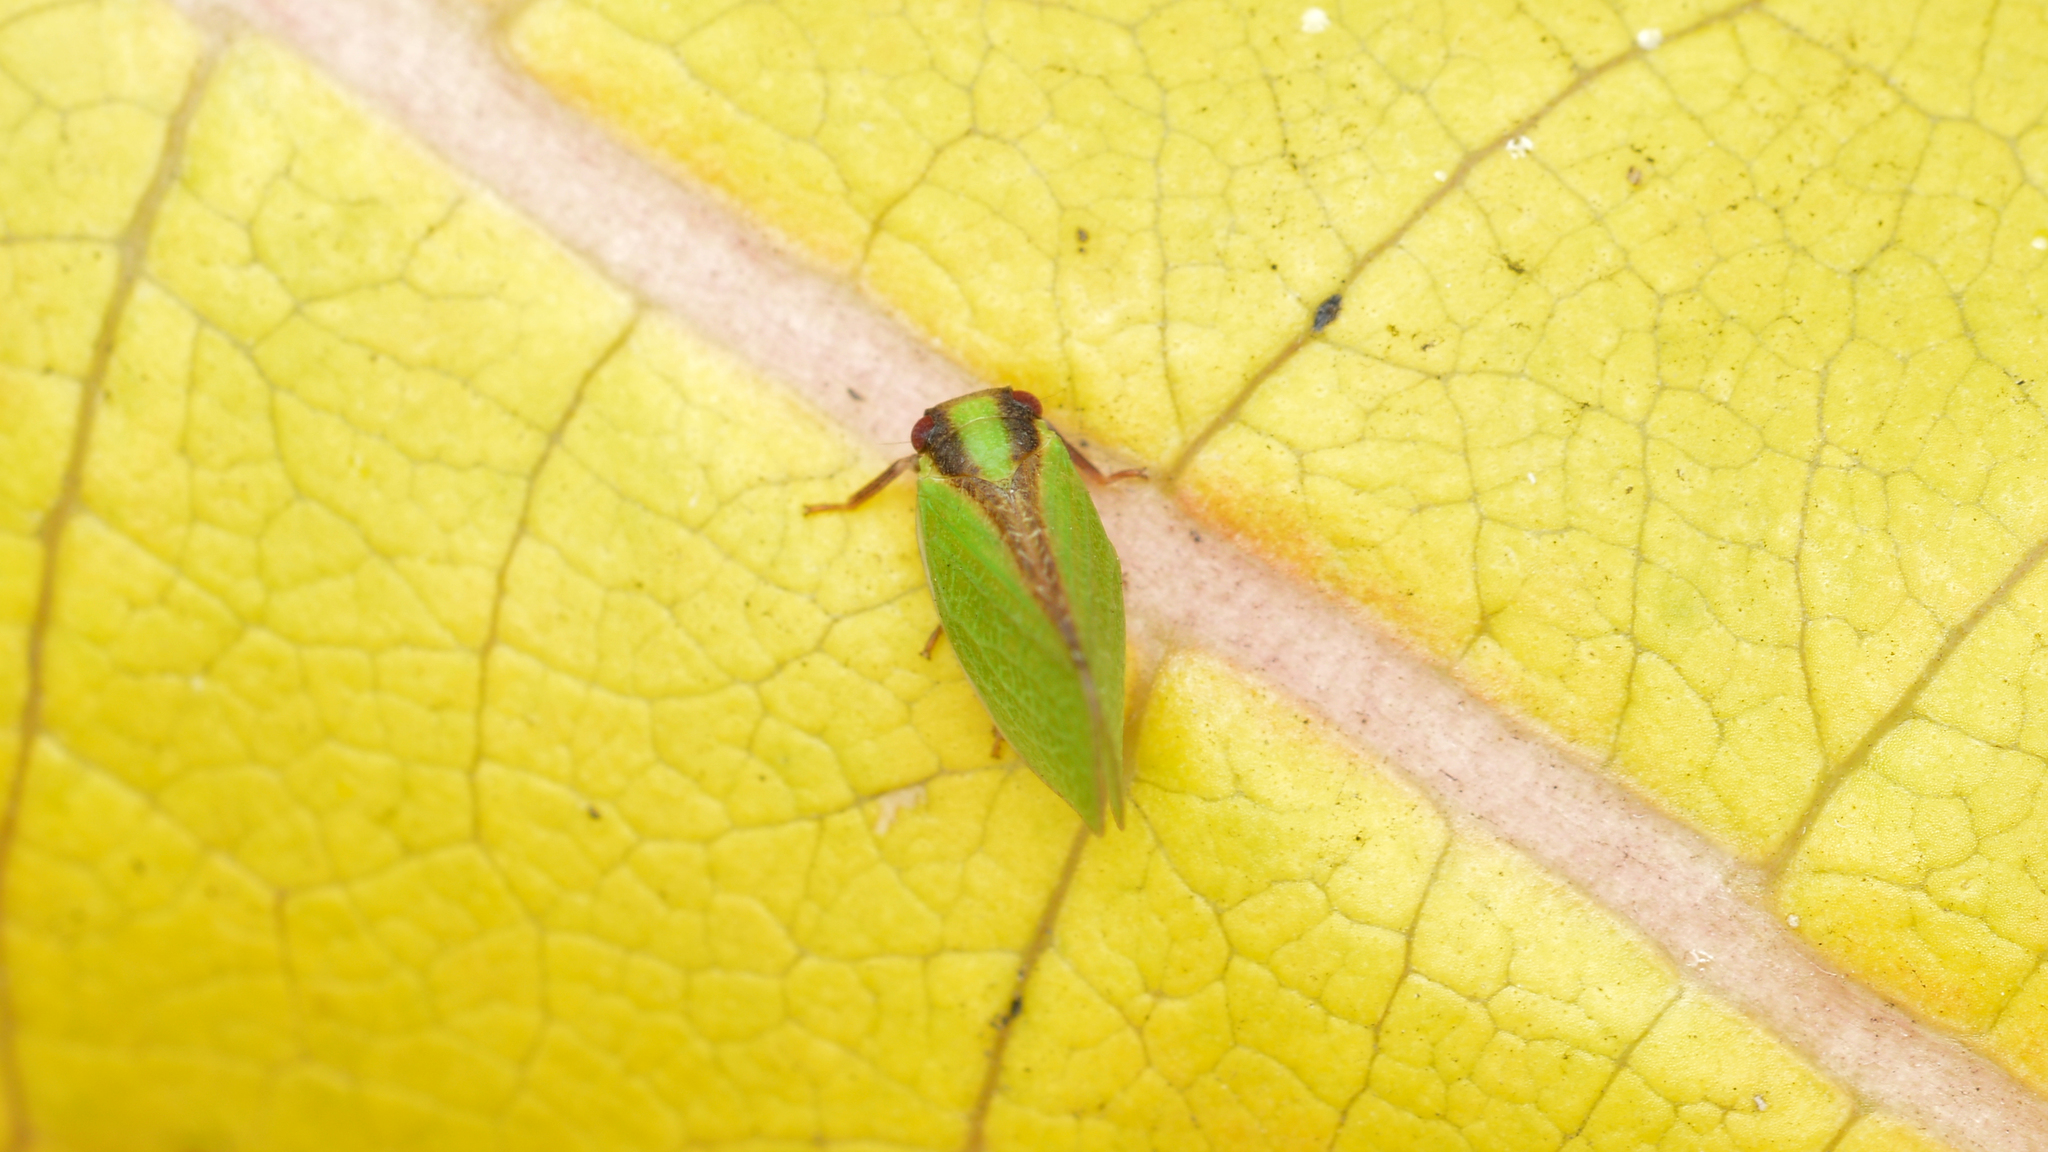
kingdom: Animalia
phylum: Arthropoda
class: Insecta
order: Hemiptera
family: Acanaloniidae
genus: Acanalonia
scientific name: Acanalonia bivittata
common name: Two-striped planthopper
